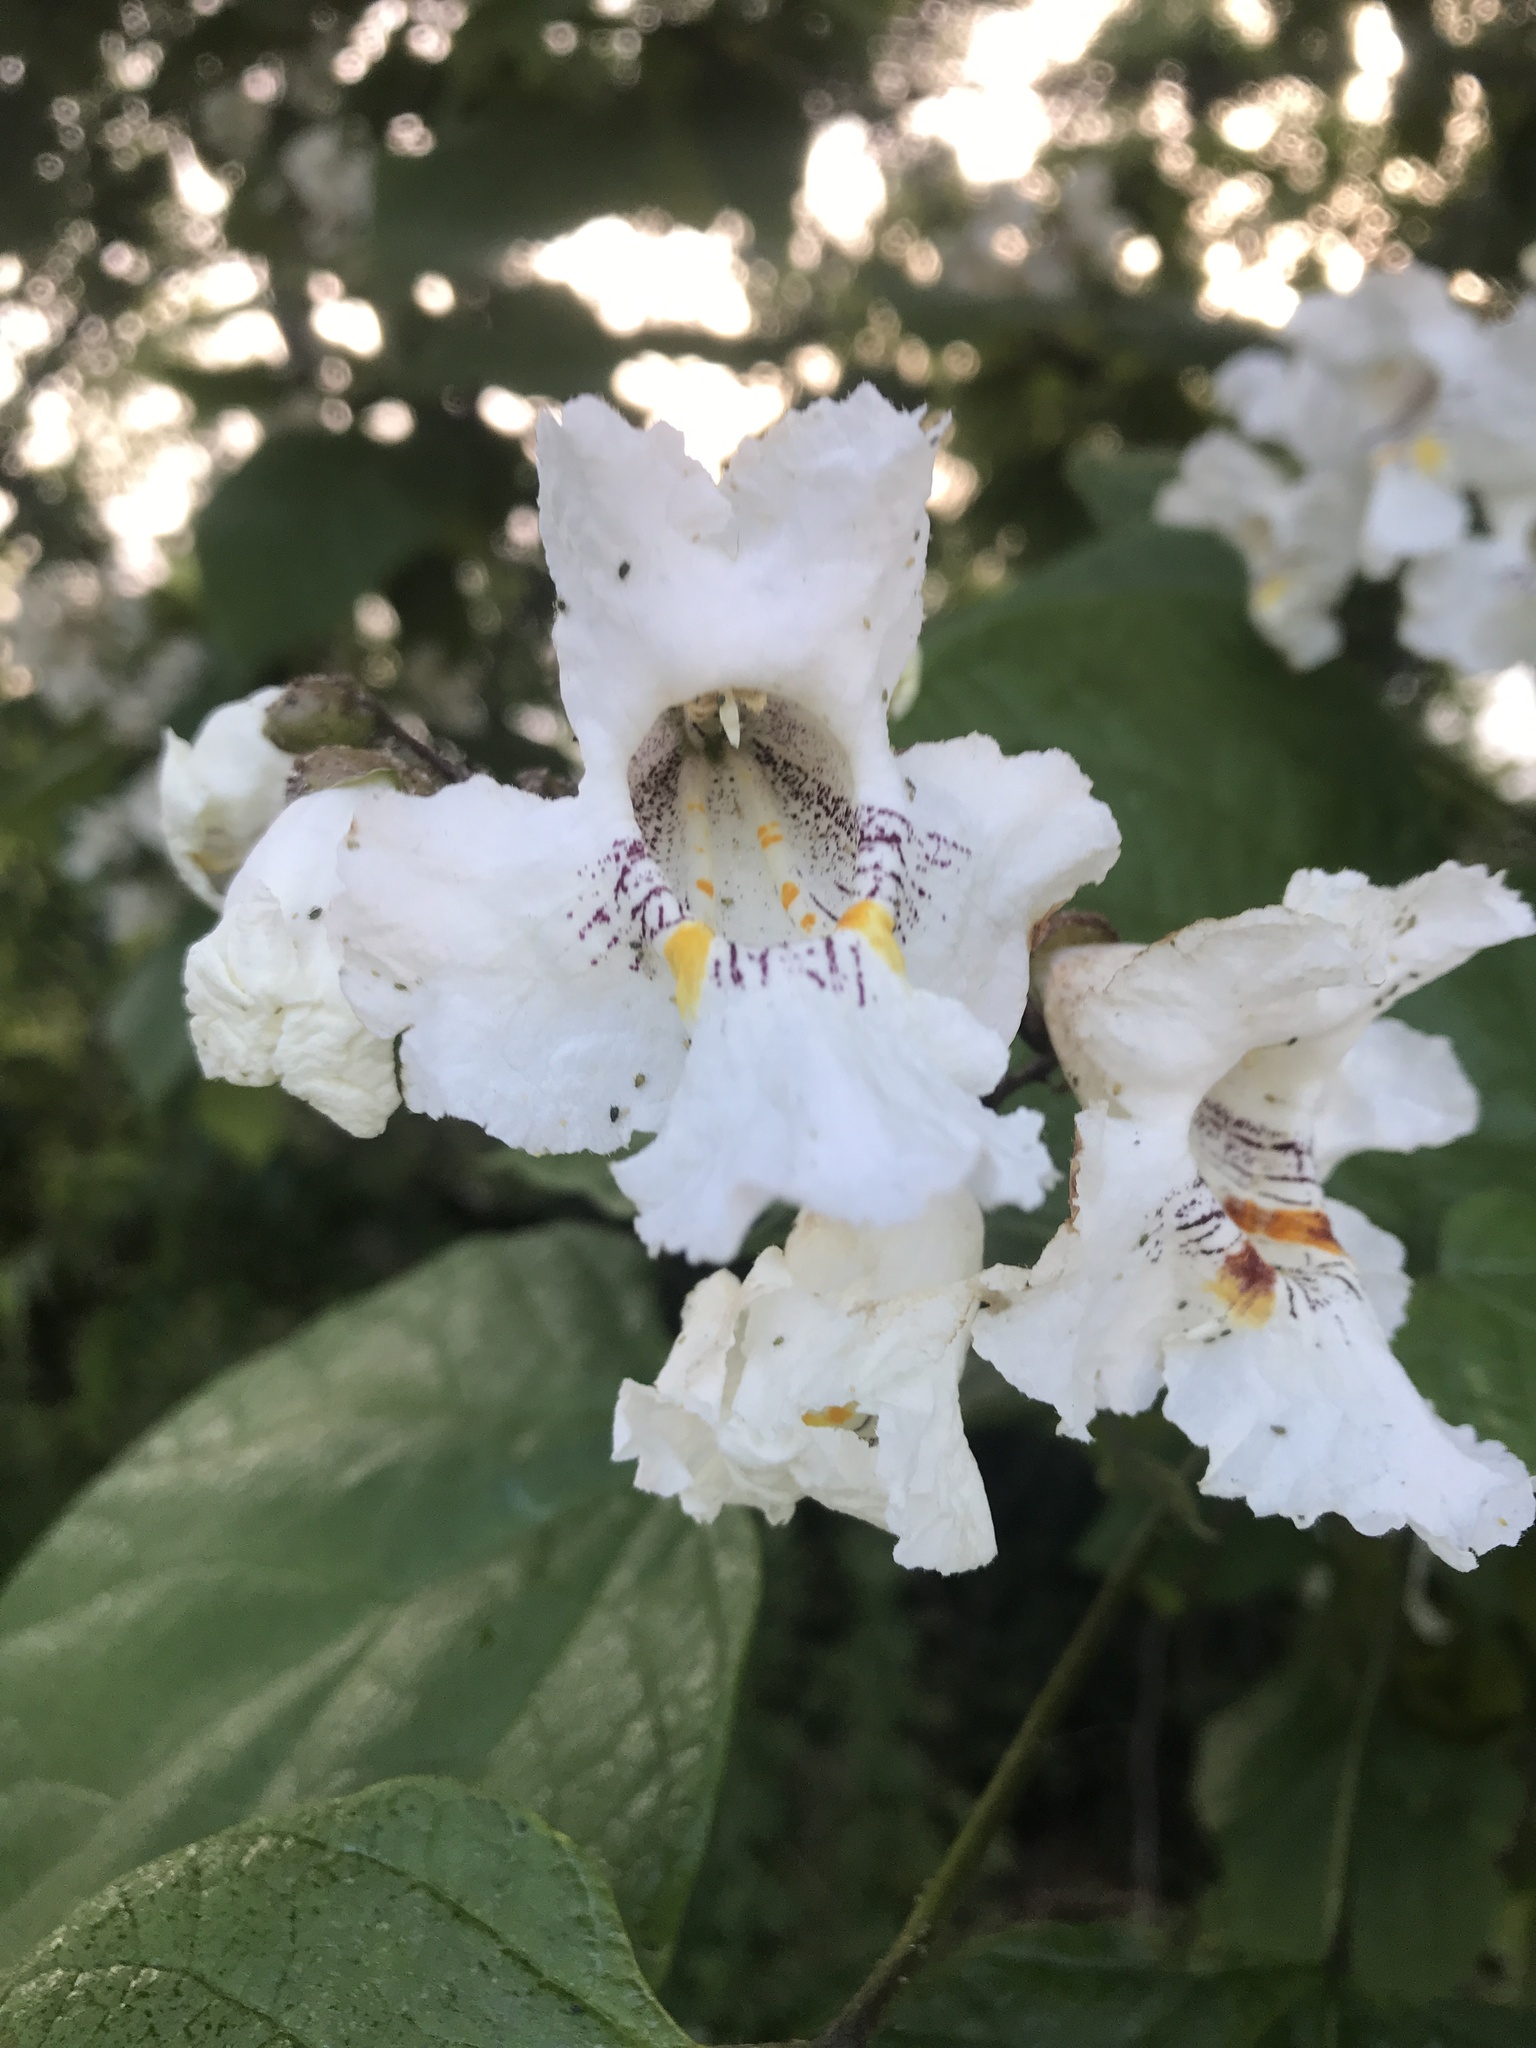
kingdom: Plantae
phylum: Tracheophyta
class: Magnoliopsida
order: Lamiales
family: Bignoniaceae
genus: Catalpa
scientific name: Catalpa speciosa
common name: Northern catalpa
